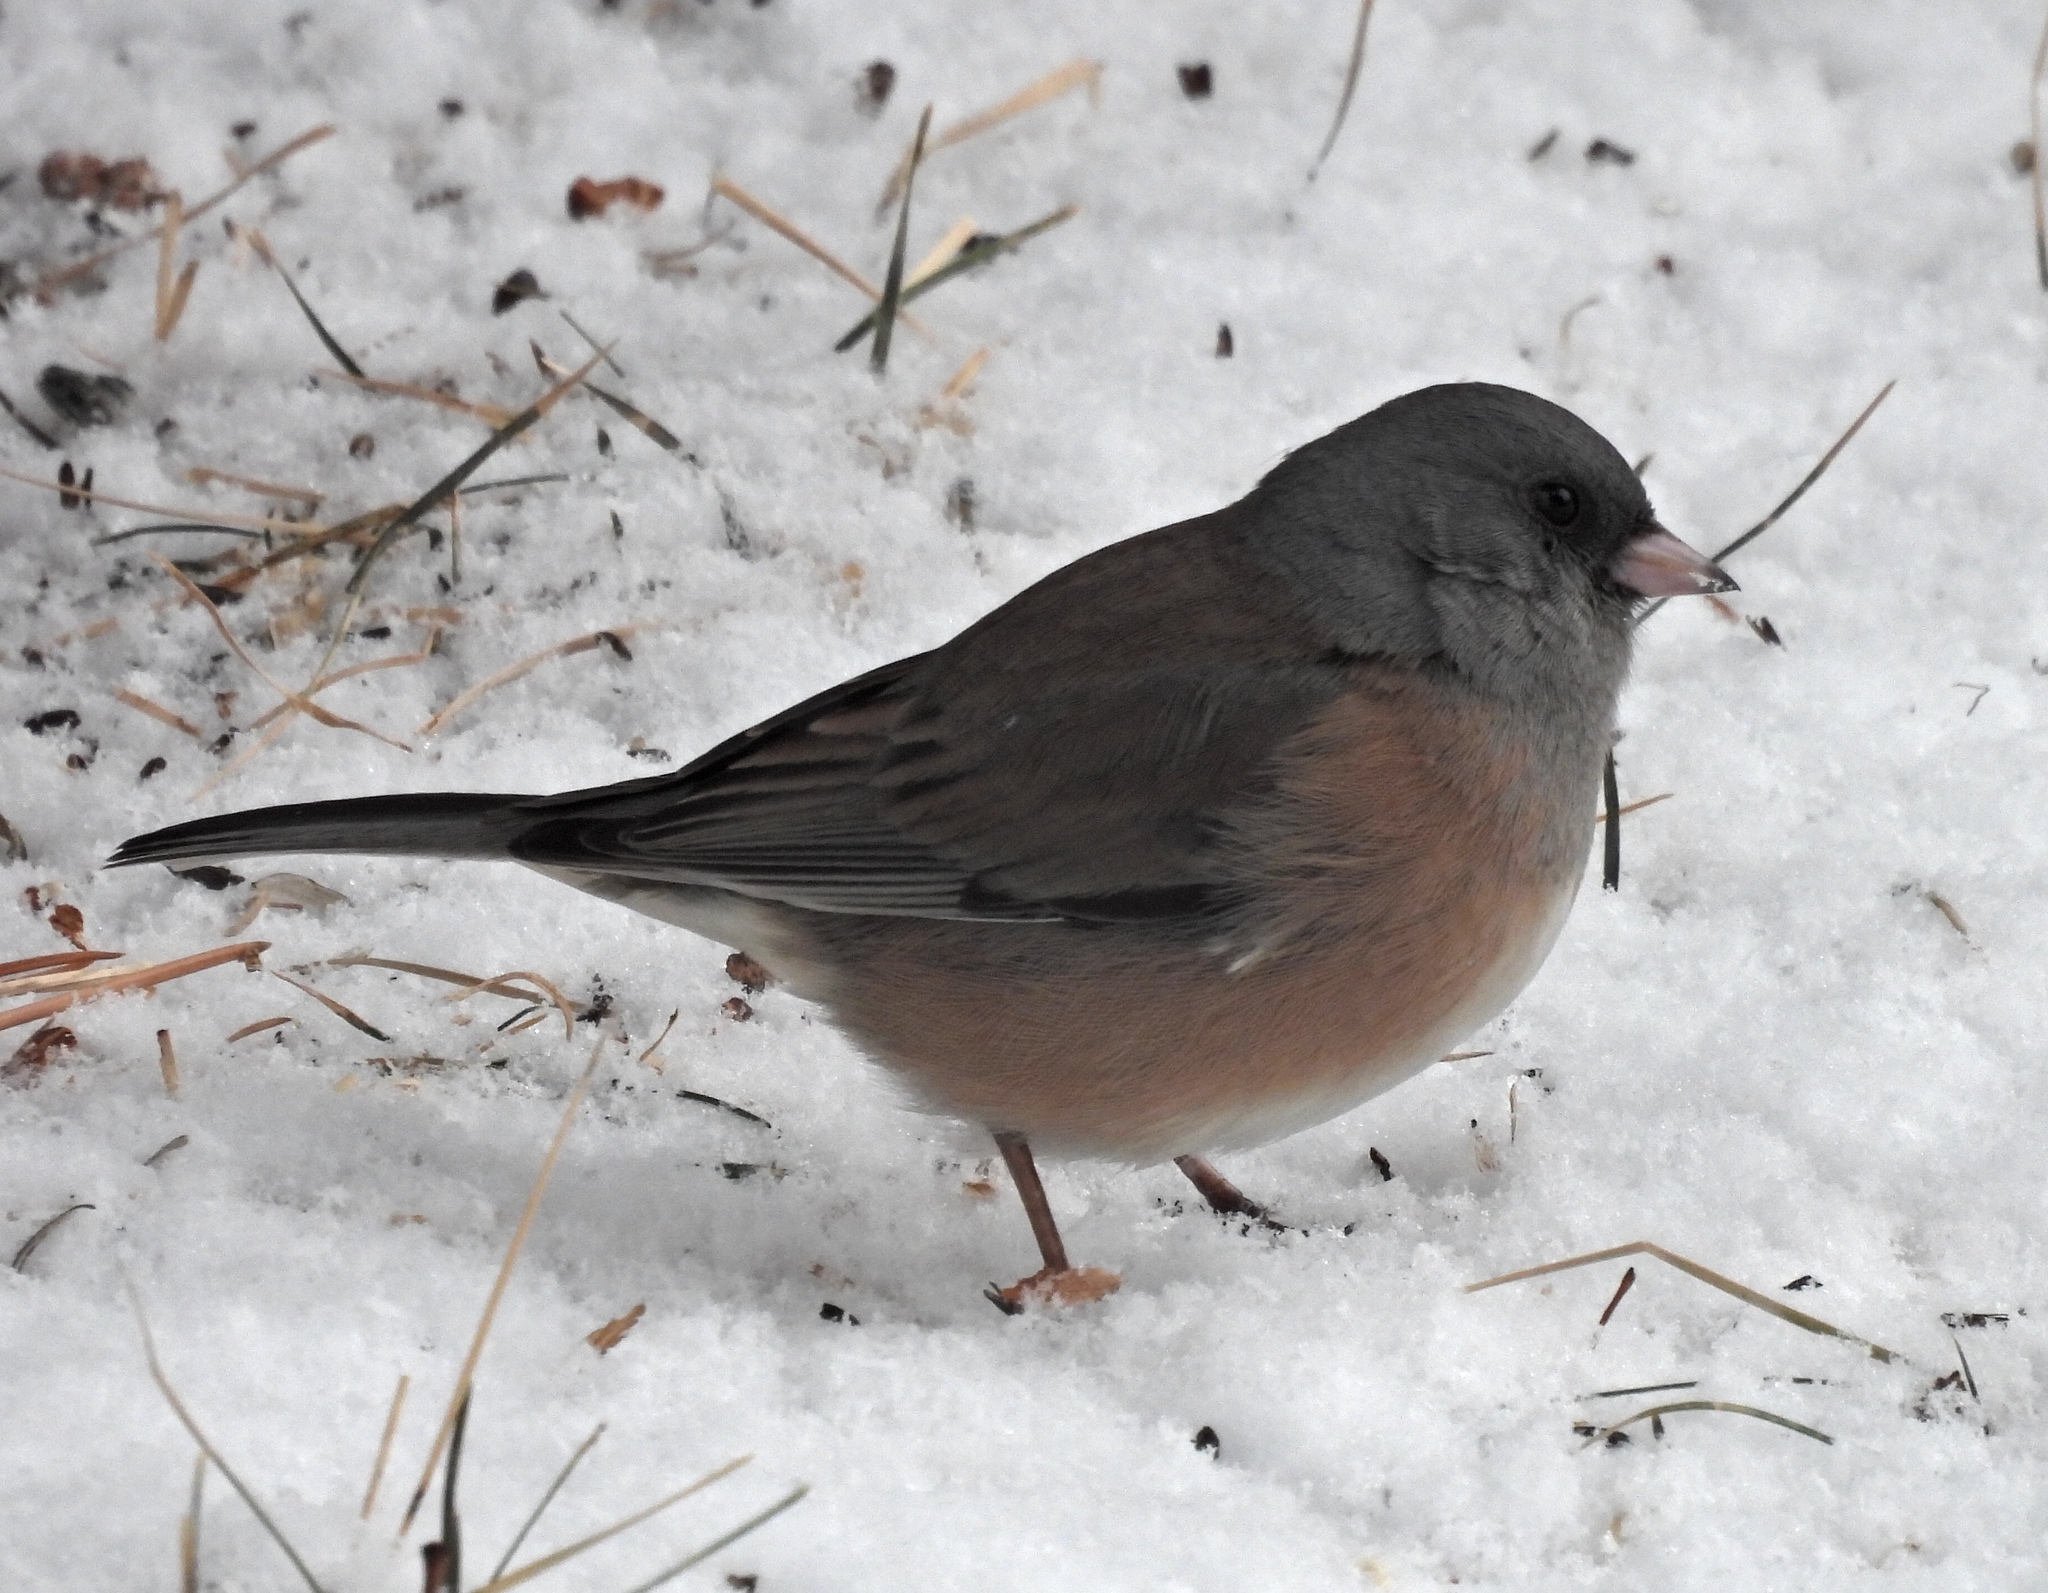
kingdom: Animalia
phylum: Chordata
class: Aves
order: Passeriformes
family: Passerellidae
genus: Junco
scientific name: Junco hyemalis
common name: Dark-eyed junco
